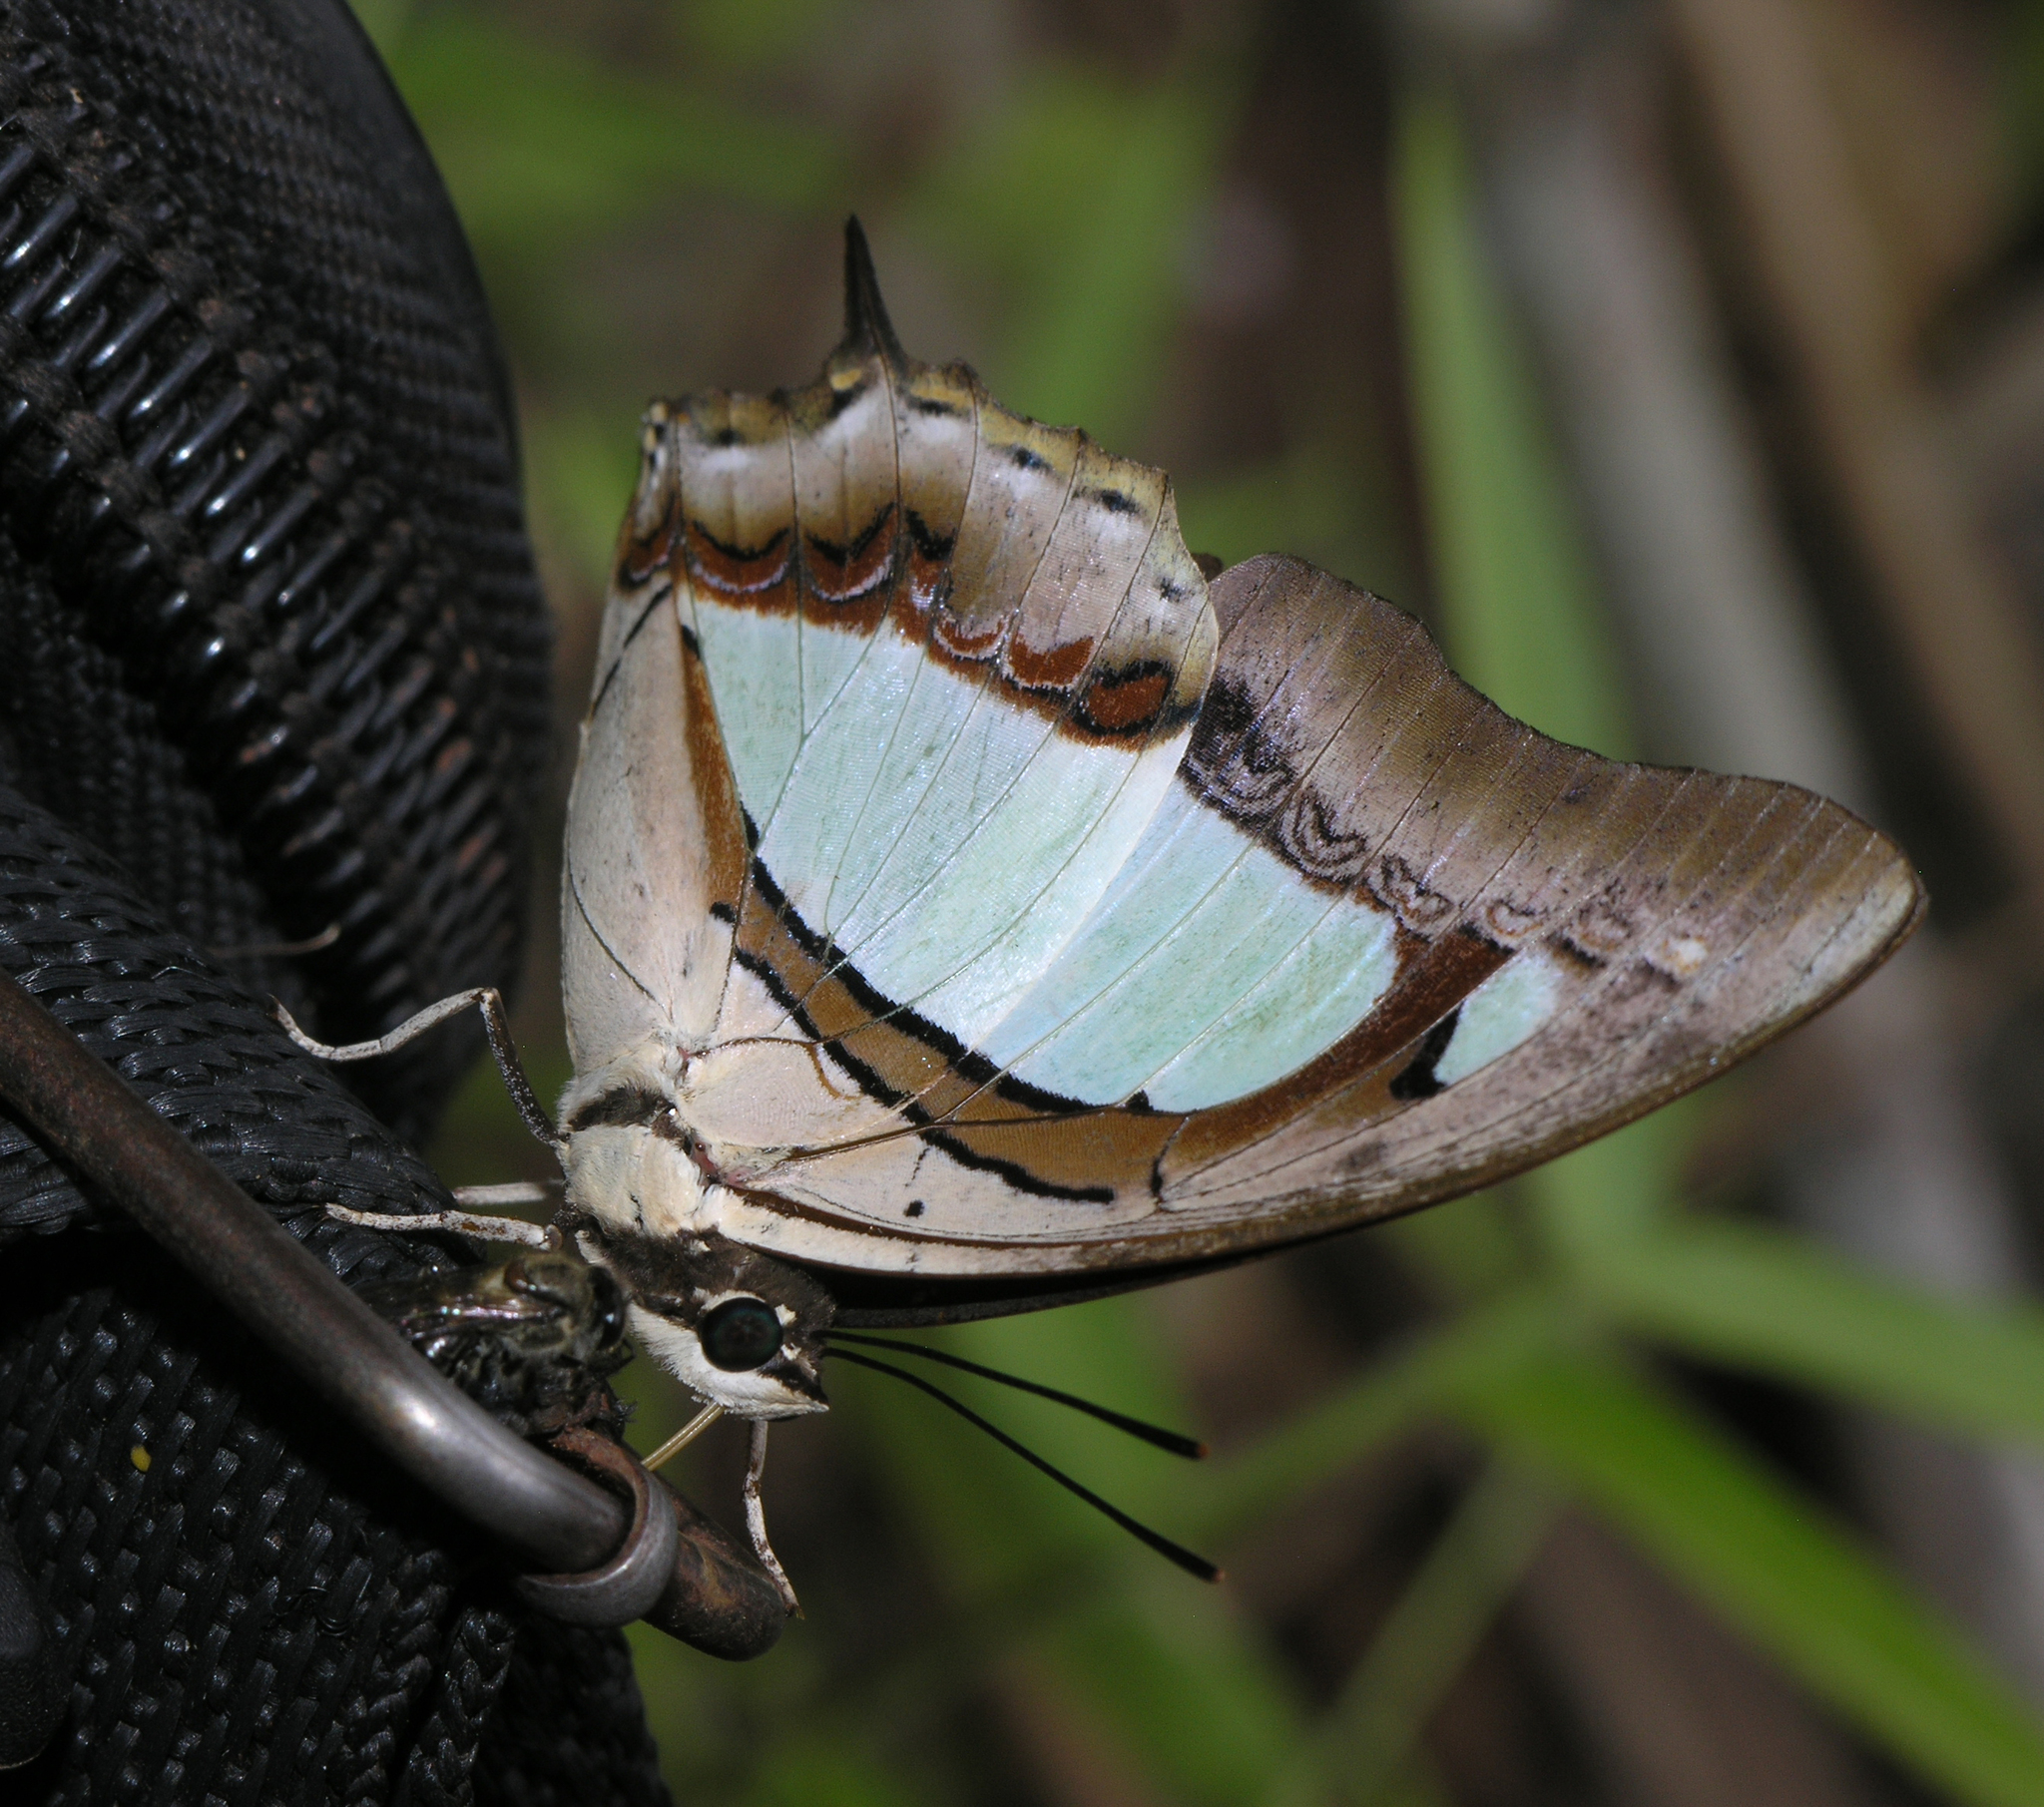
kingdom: Animalia
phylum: Arthropoda
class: Insecta
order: Lepidoptera
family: Nymphalidae
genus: Polyura
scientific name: Polyura arja
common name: Pallid nawab
